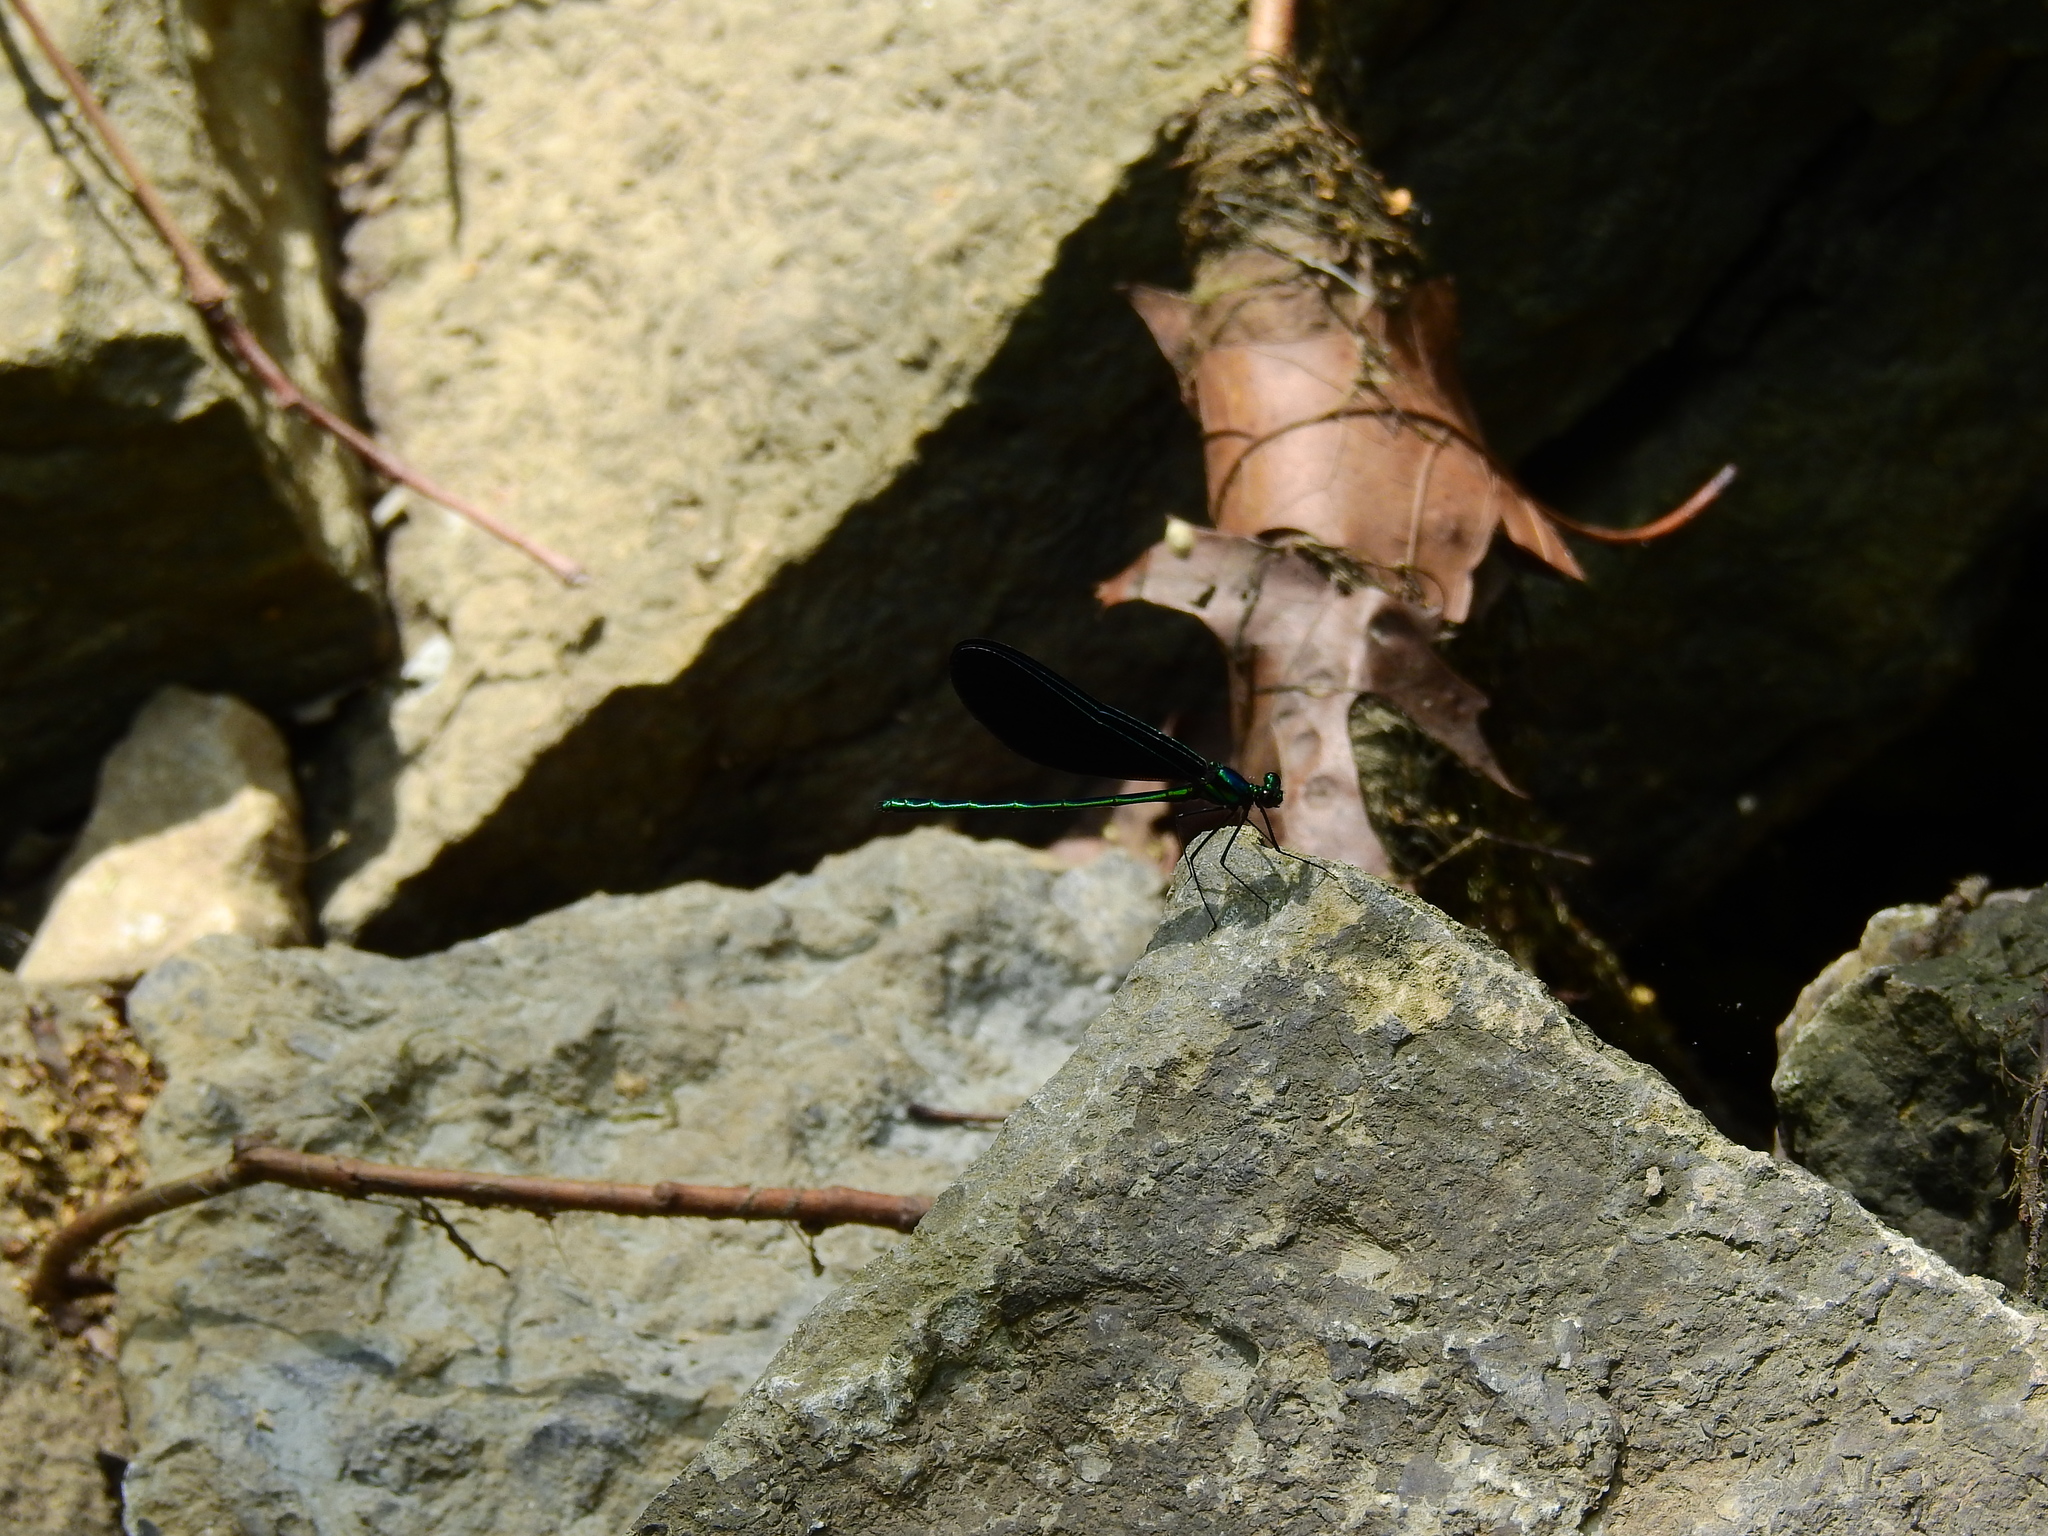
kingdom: Animalia
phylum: Arthropoda
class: Insecta
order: Odonata
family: Calopterygidae
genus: Calopteryx
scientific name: Calopteryx maculata
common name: Ebony jewelwing
